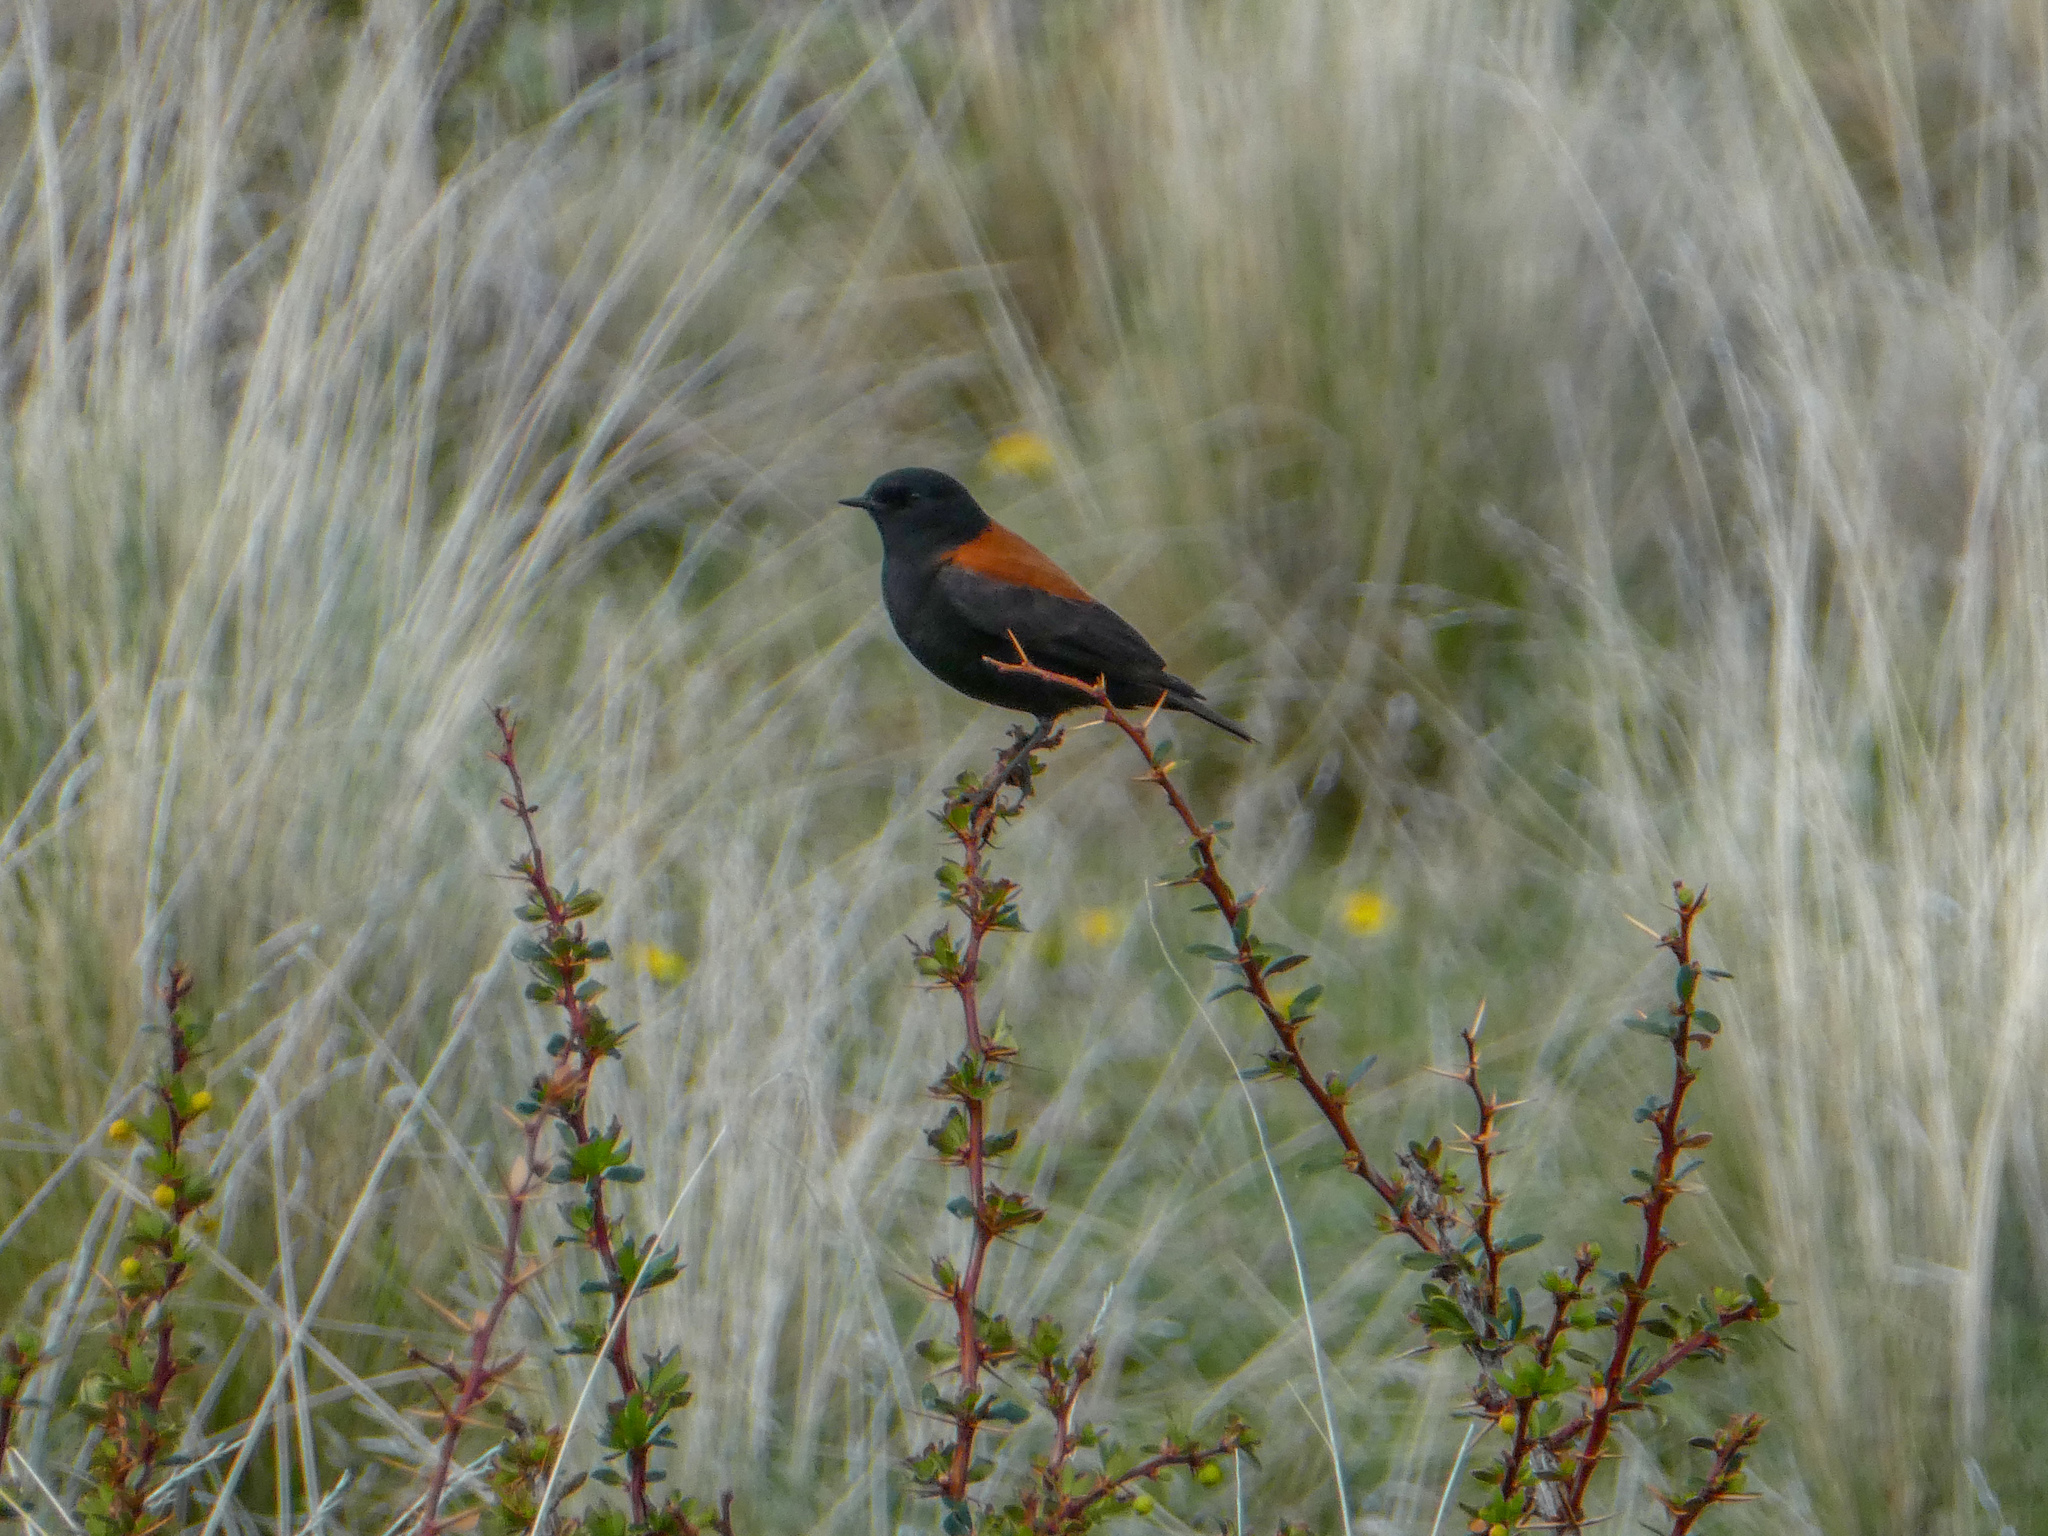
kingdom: Animalia
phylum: Chordata
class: Aves
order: Passeriformes
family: Tyrannidae
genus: Lessonia
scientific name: Lessonia rufa
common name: Austral negrito
